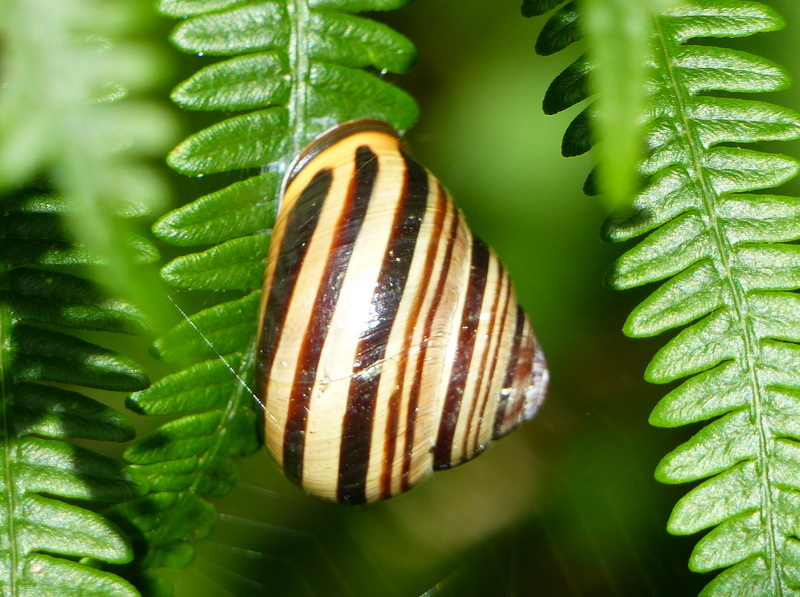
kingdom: Animalia
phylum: Mollusca
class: Gastropoda
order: Stylommatophora
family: Helicidae
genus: Cepaea
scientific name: Cepaea nemoralis
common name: Grovesnail
